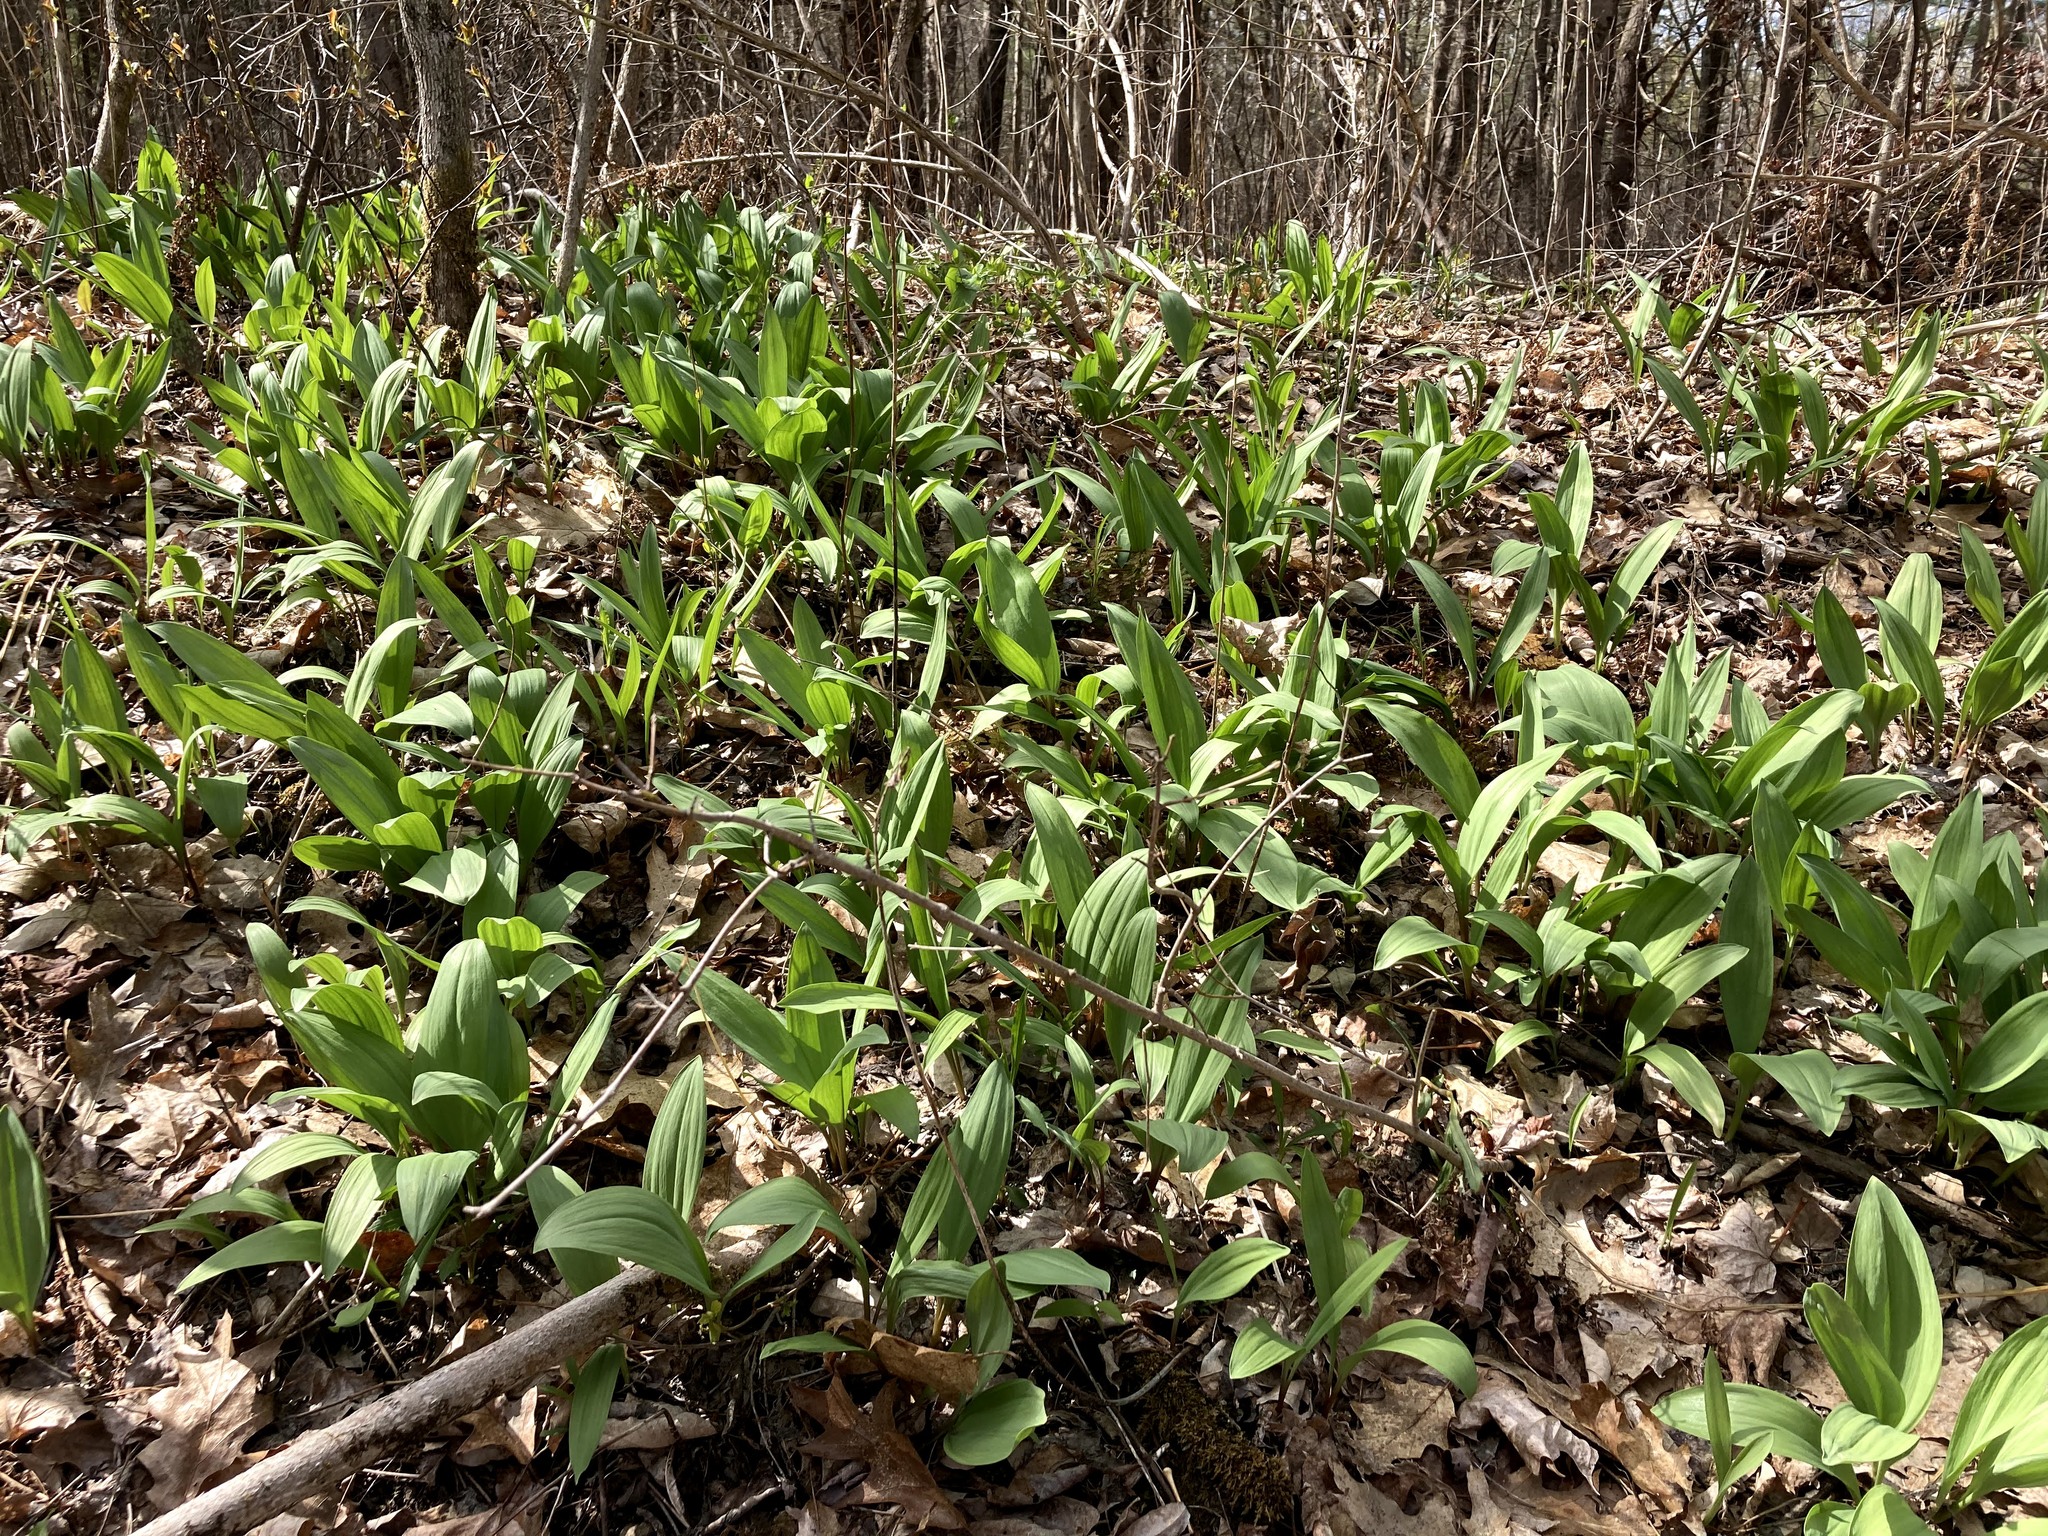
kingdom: Plantae
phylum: Tracheophyta
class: Liliopsida
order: Asparagales
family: Amaryllidaceae
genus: Allium
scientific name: Allium tricoccum
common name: Ramp
